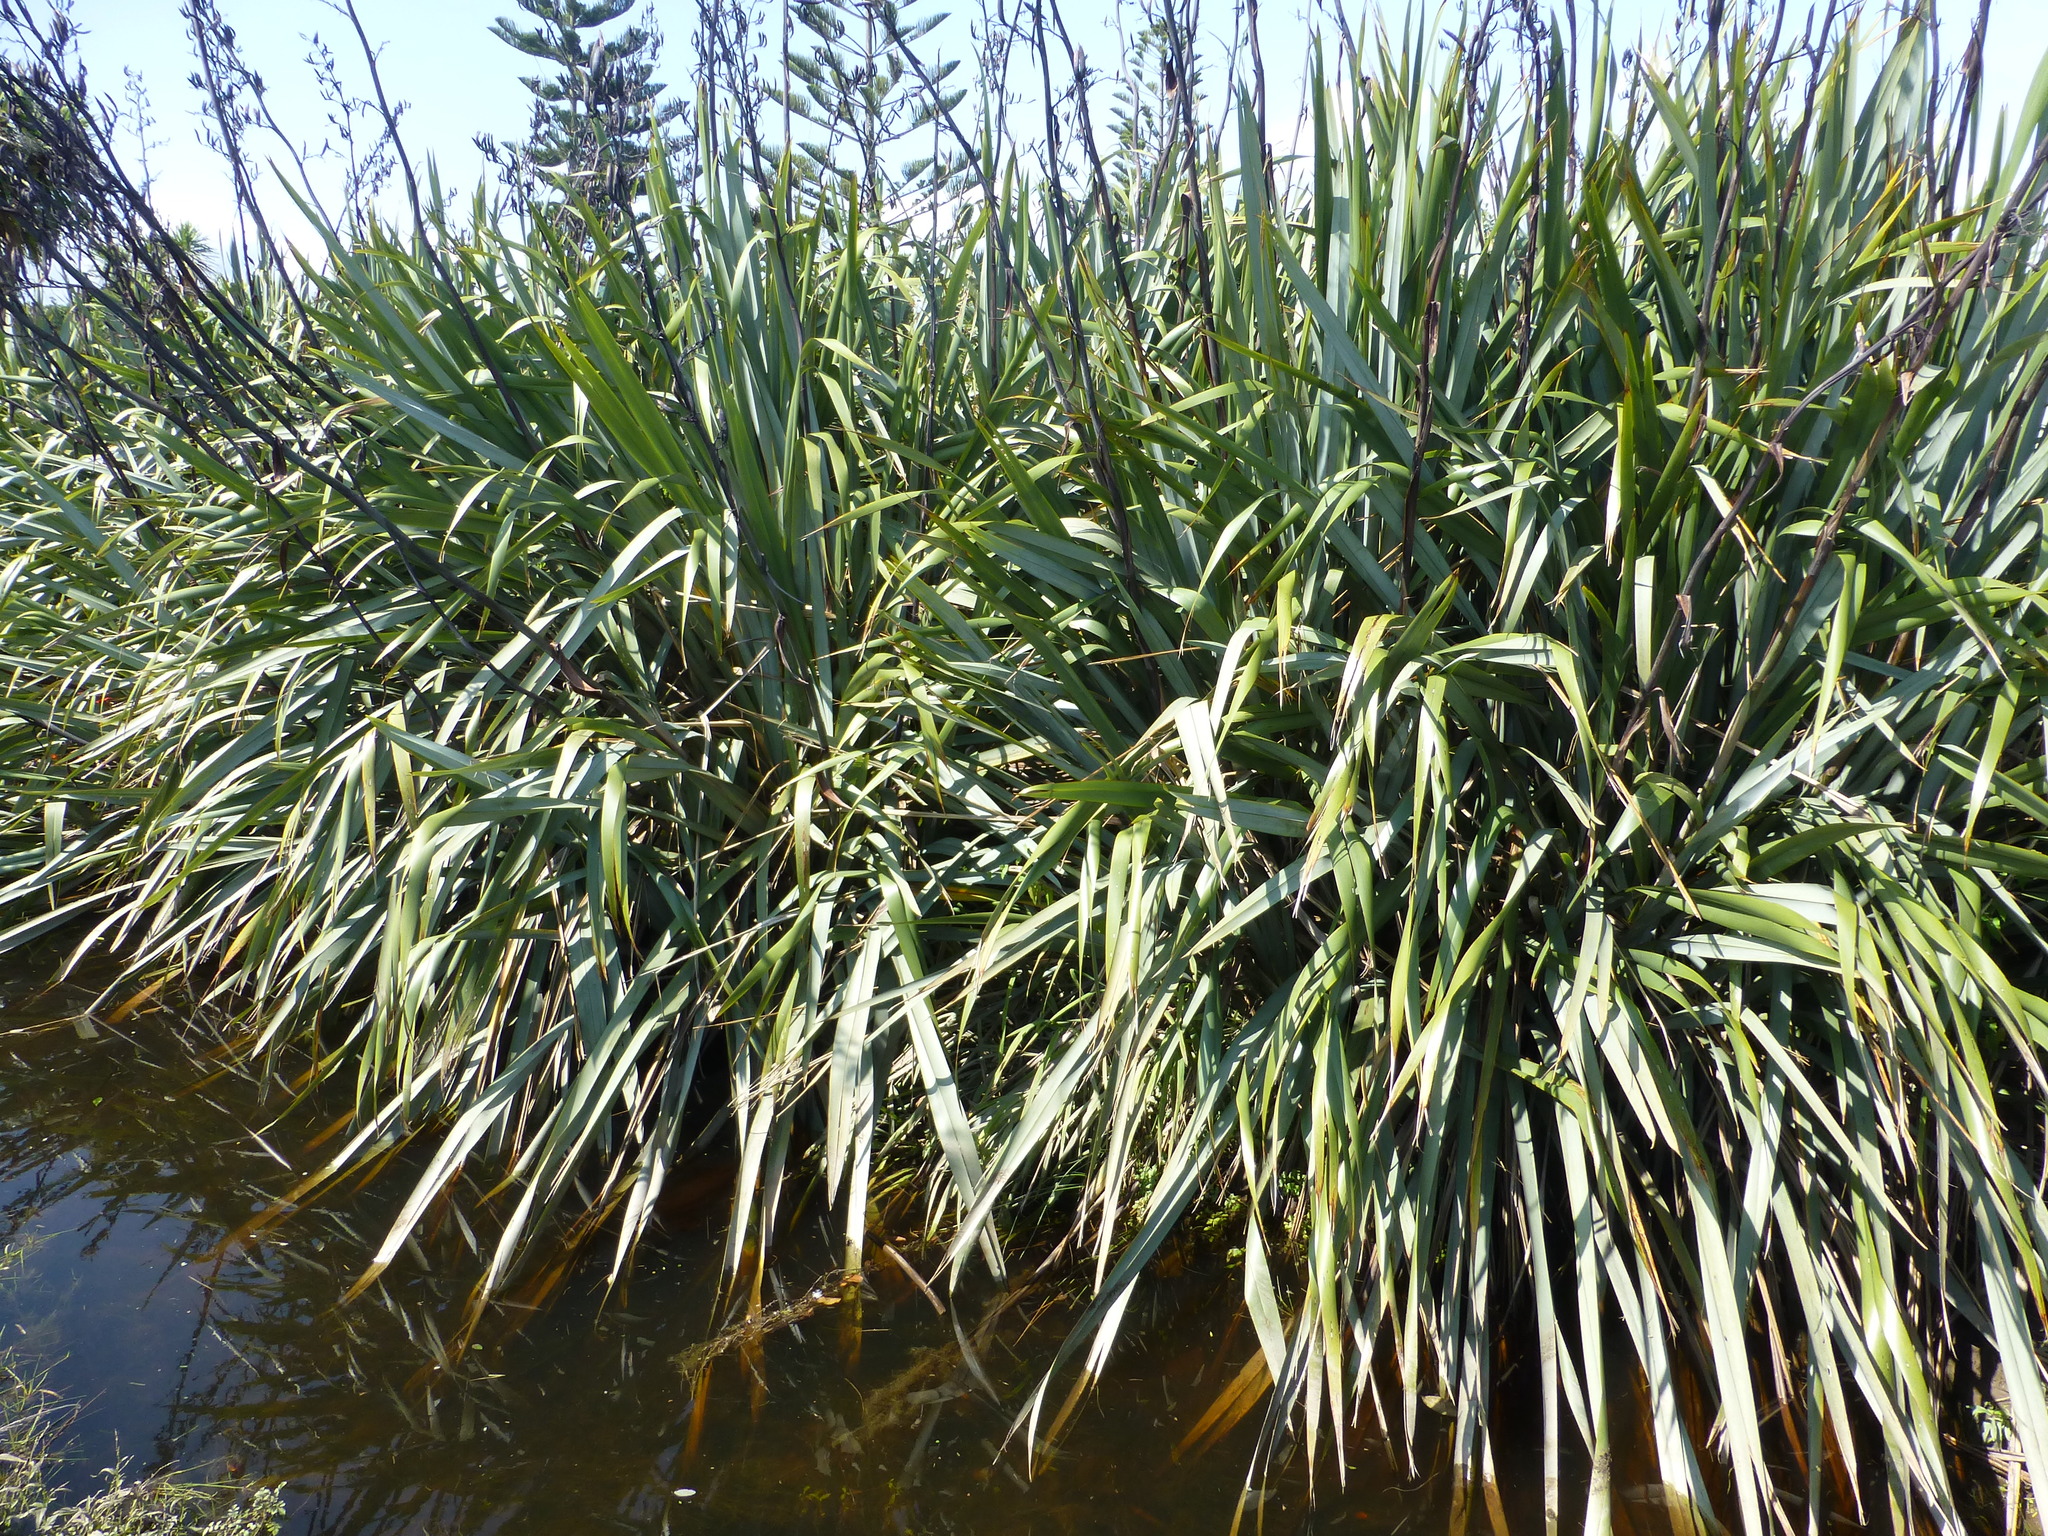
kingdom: Plantae
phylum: Tracheophyta
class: Liliopsida
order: Asparagales
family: Asphodelaceae
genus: Phormium
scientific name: Phormium tenax
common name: New zealand flax
